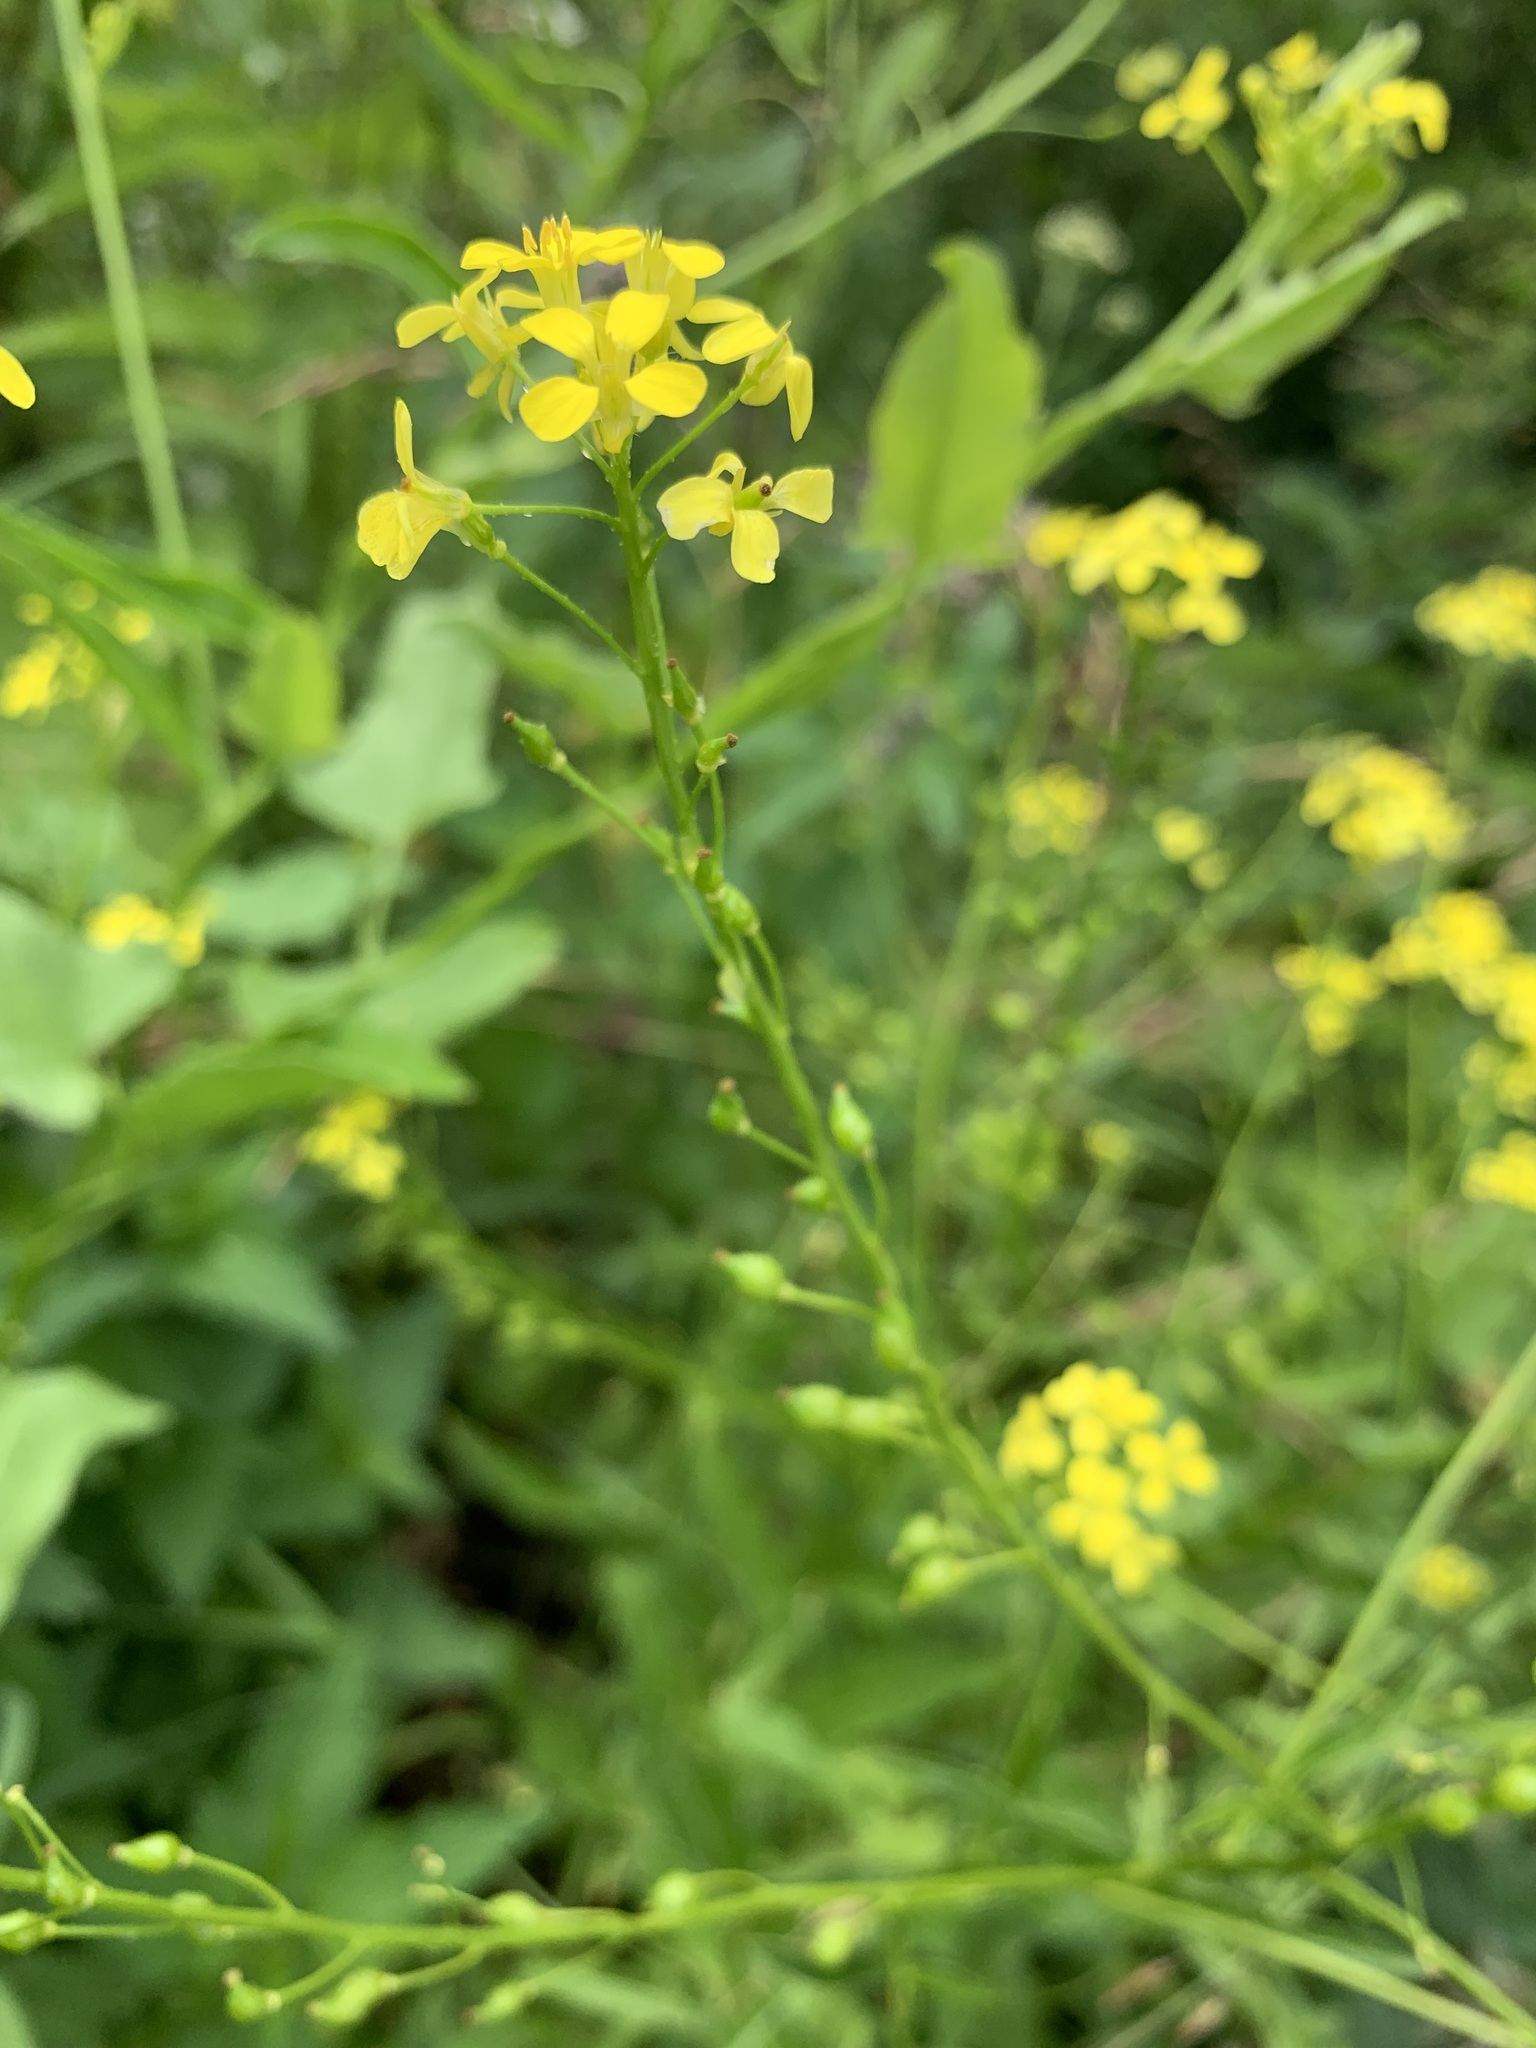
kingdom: Plantae
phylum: Tracheophyta
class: Magnoliopsida
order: Brassicales
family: Brassicaceae
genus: Bunias
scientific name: Bunias orientalis
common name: Warty-cabbage
